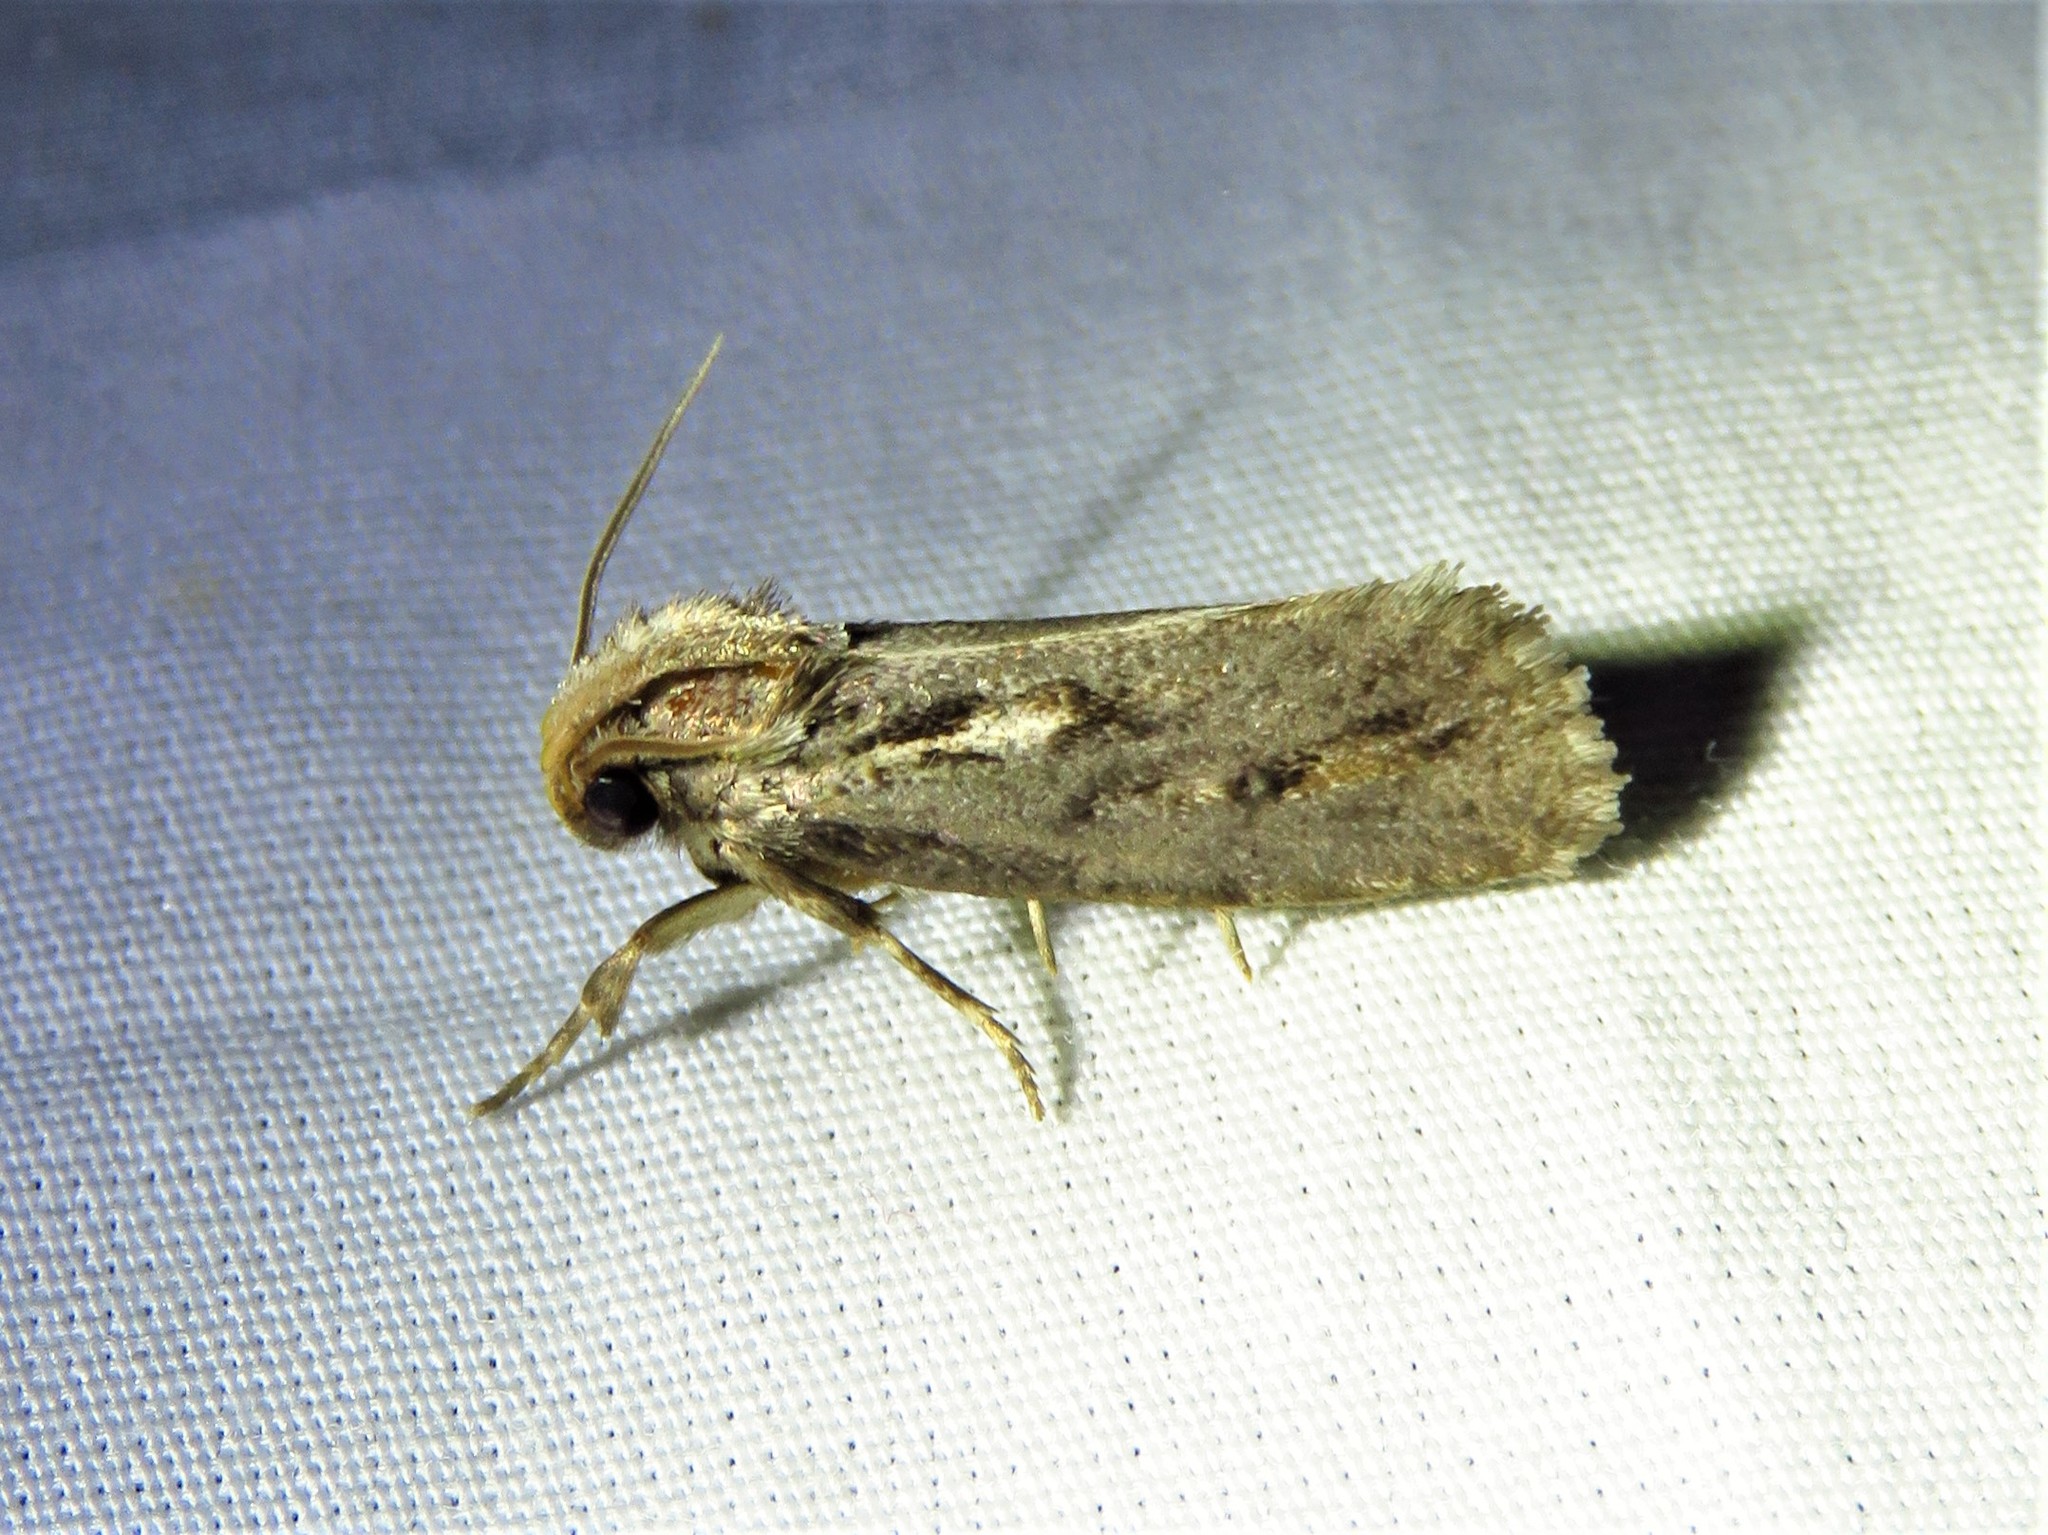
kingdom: Animalia
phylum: Arthropoda
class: Insecta
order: Lepidoptera
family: Tineidae
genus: Acrolophus
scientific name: Acrolophus popeanella
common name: Clemens' grass tubeworm moth
